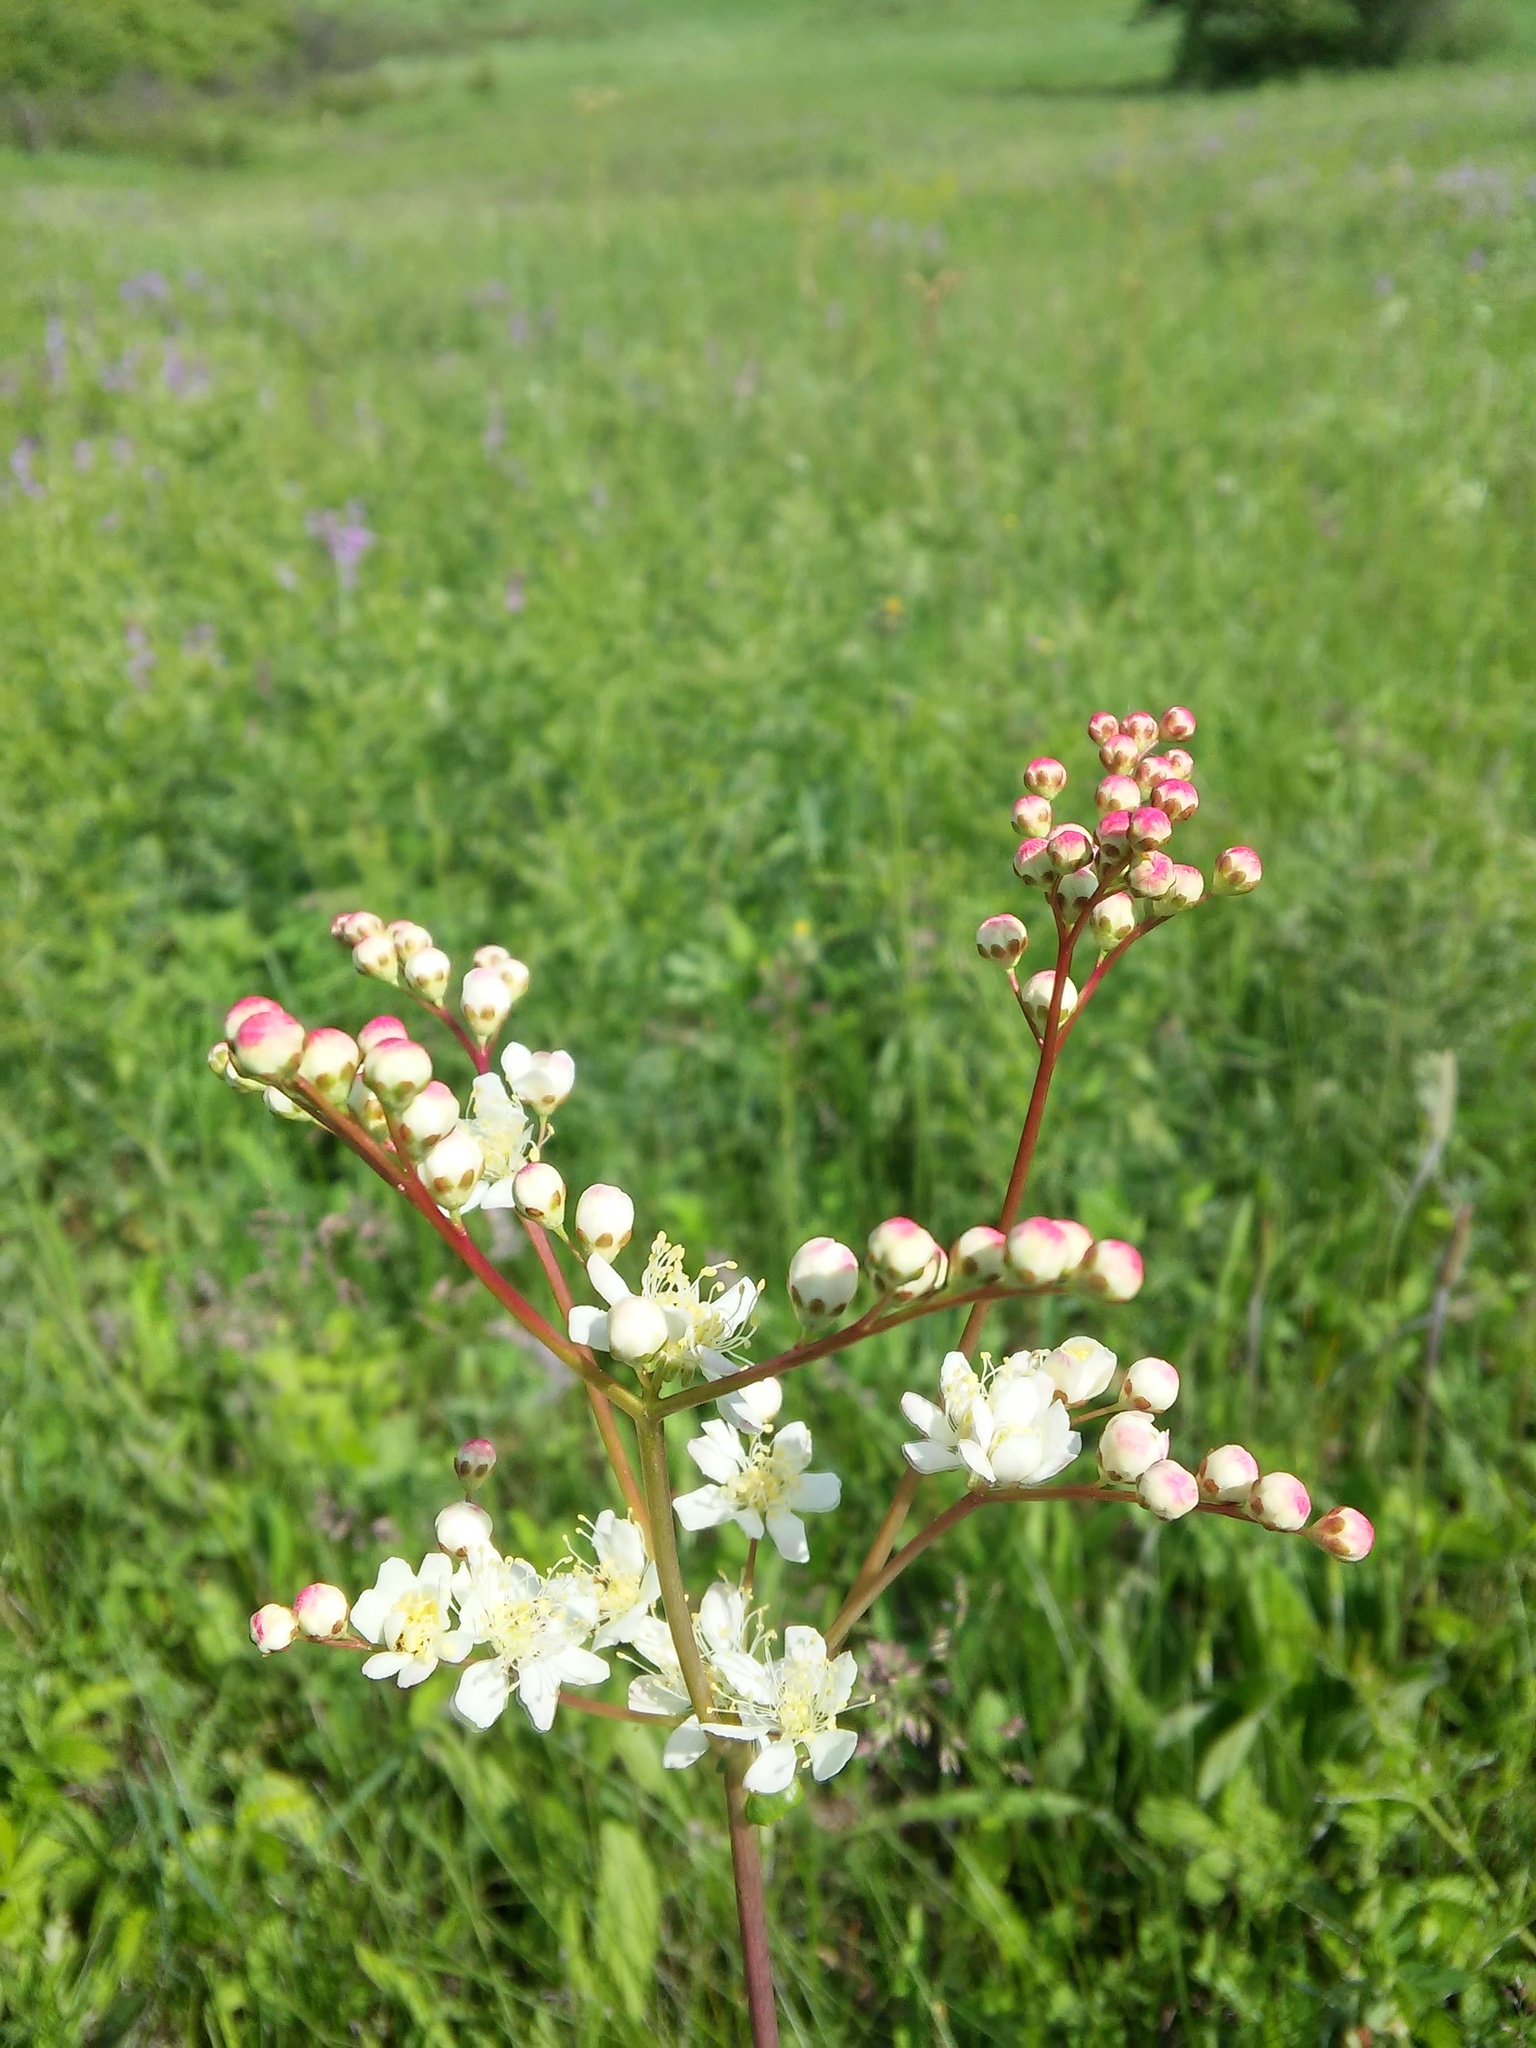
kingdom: Plantae
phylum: Tracheophyta
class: Magnoliopsida
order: Rosales
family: Rosaceae
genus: Filipendula
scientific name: Filipendula vulgaris
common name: Dropwort
